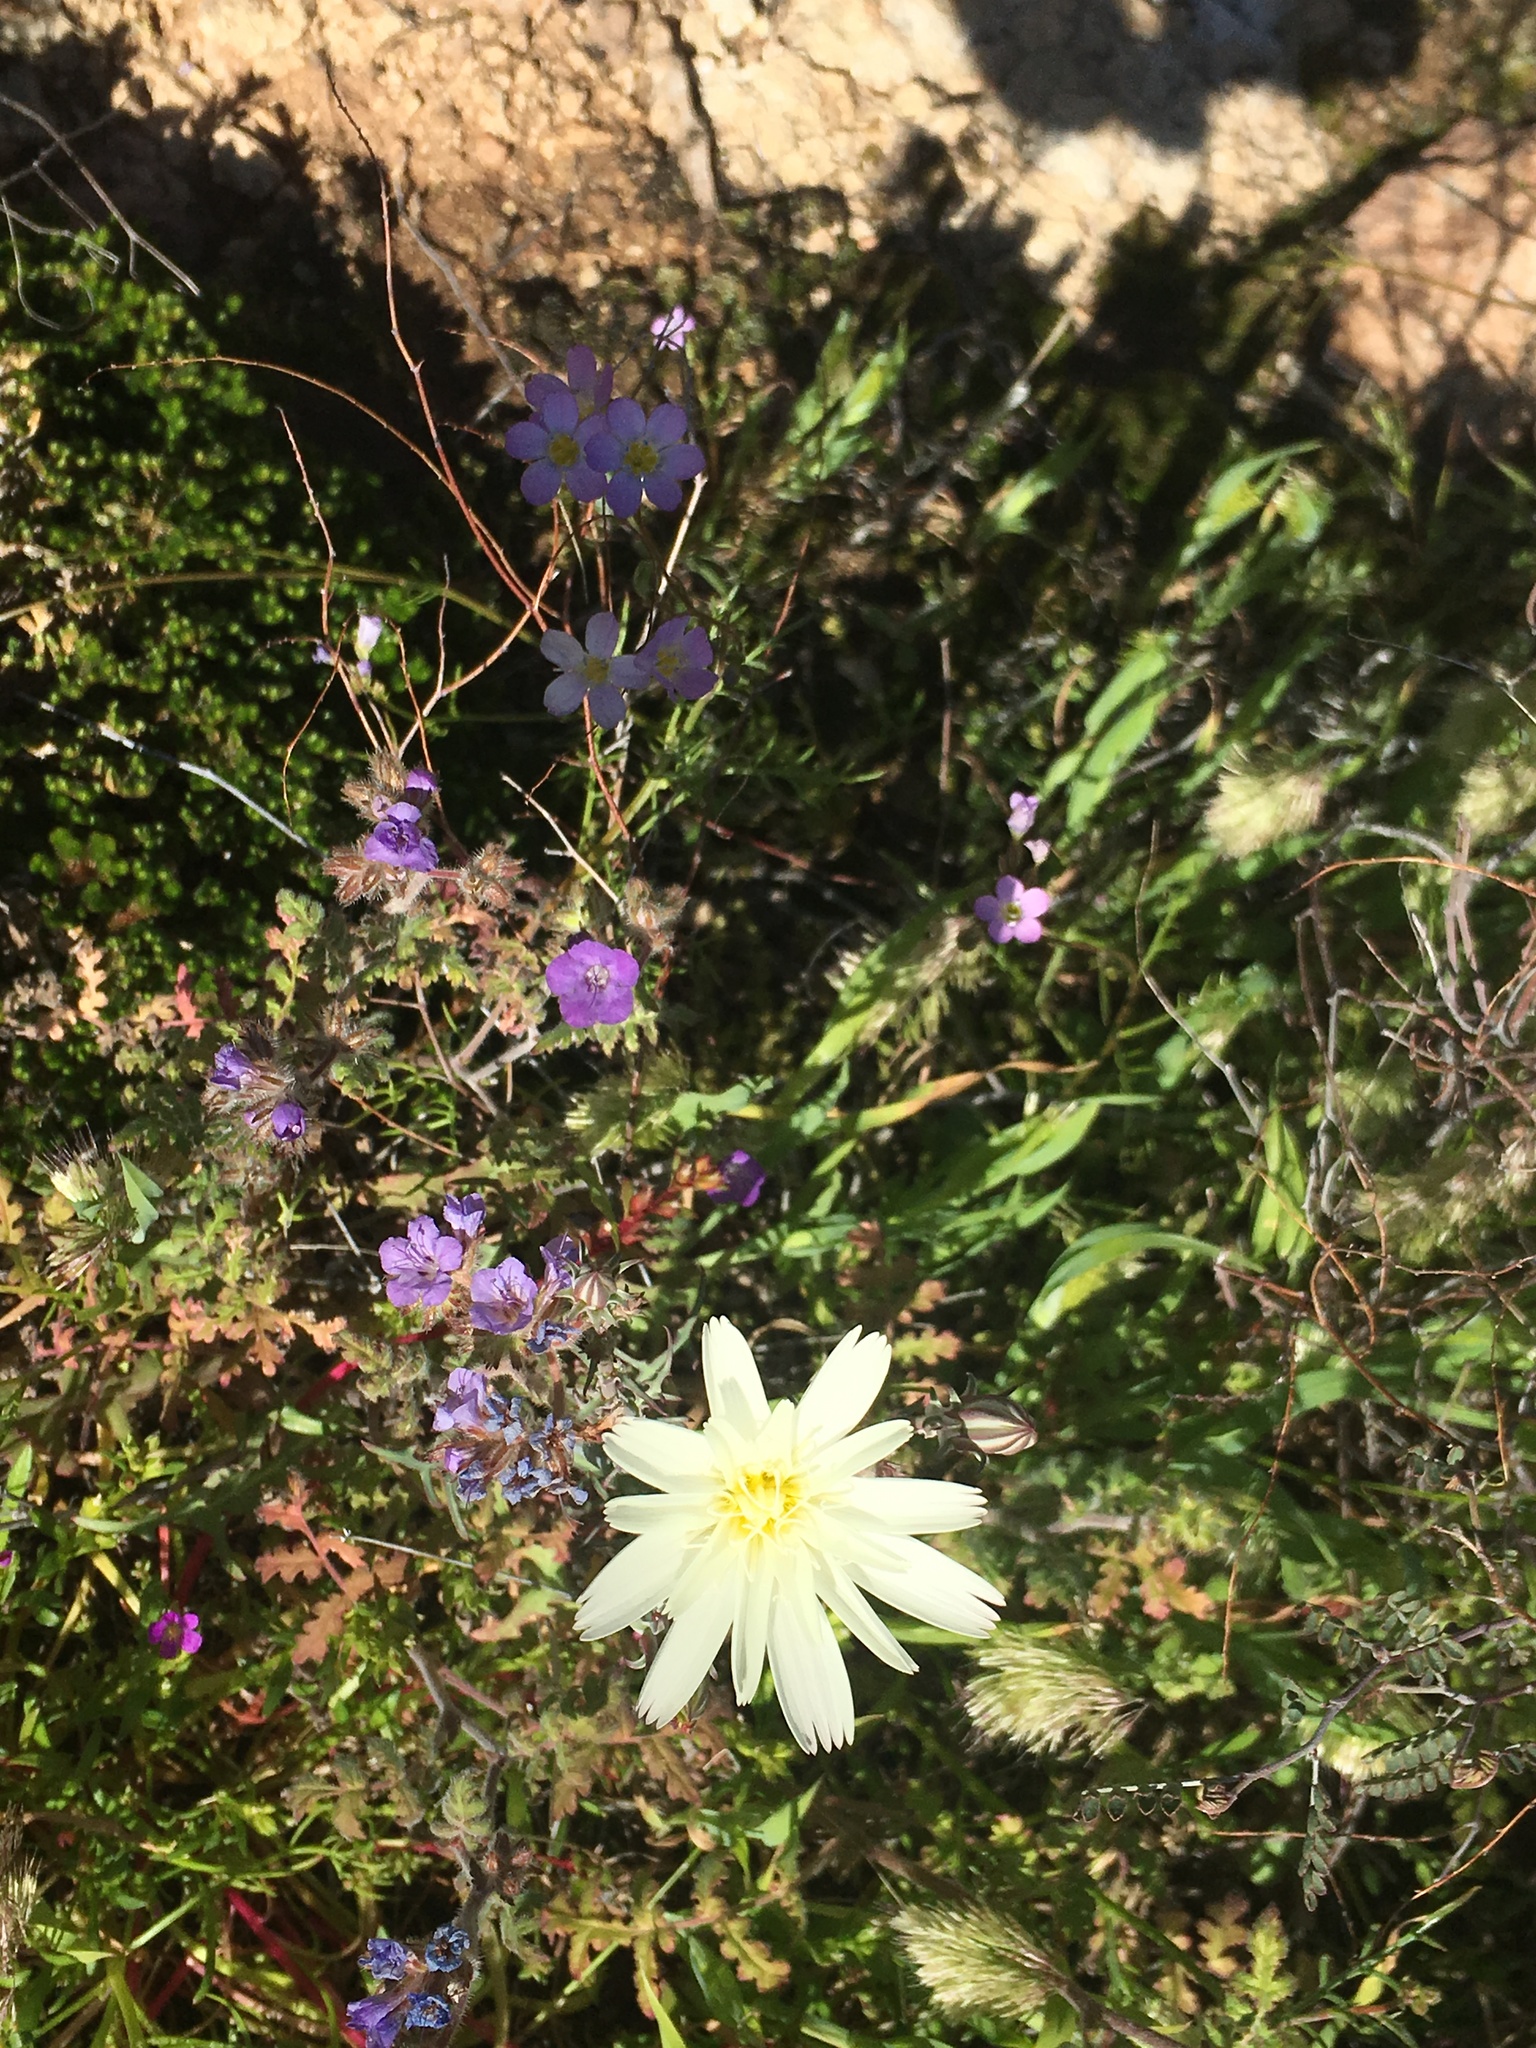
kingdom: Plantae
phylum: Tracheophyta
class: Magnoliopsida
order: Asterales
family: Asteraceae
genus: Rafinesquia
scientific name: Rafinesquia neomexicana
